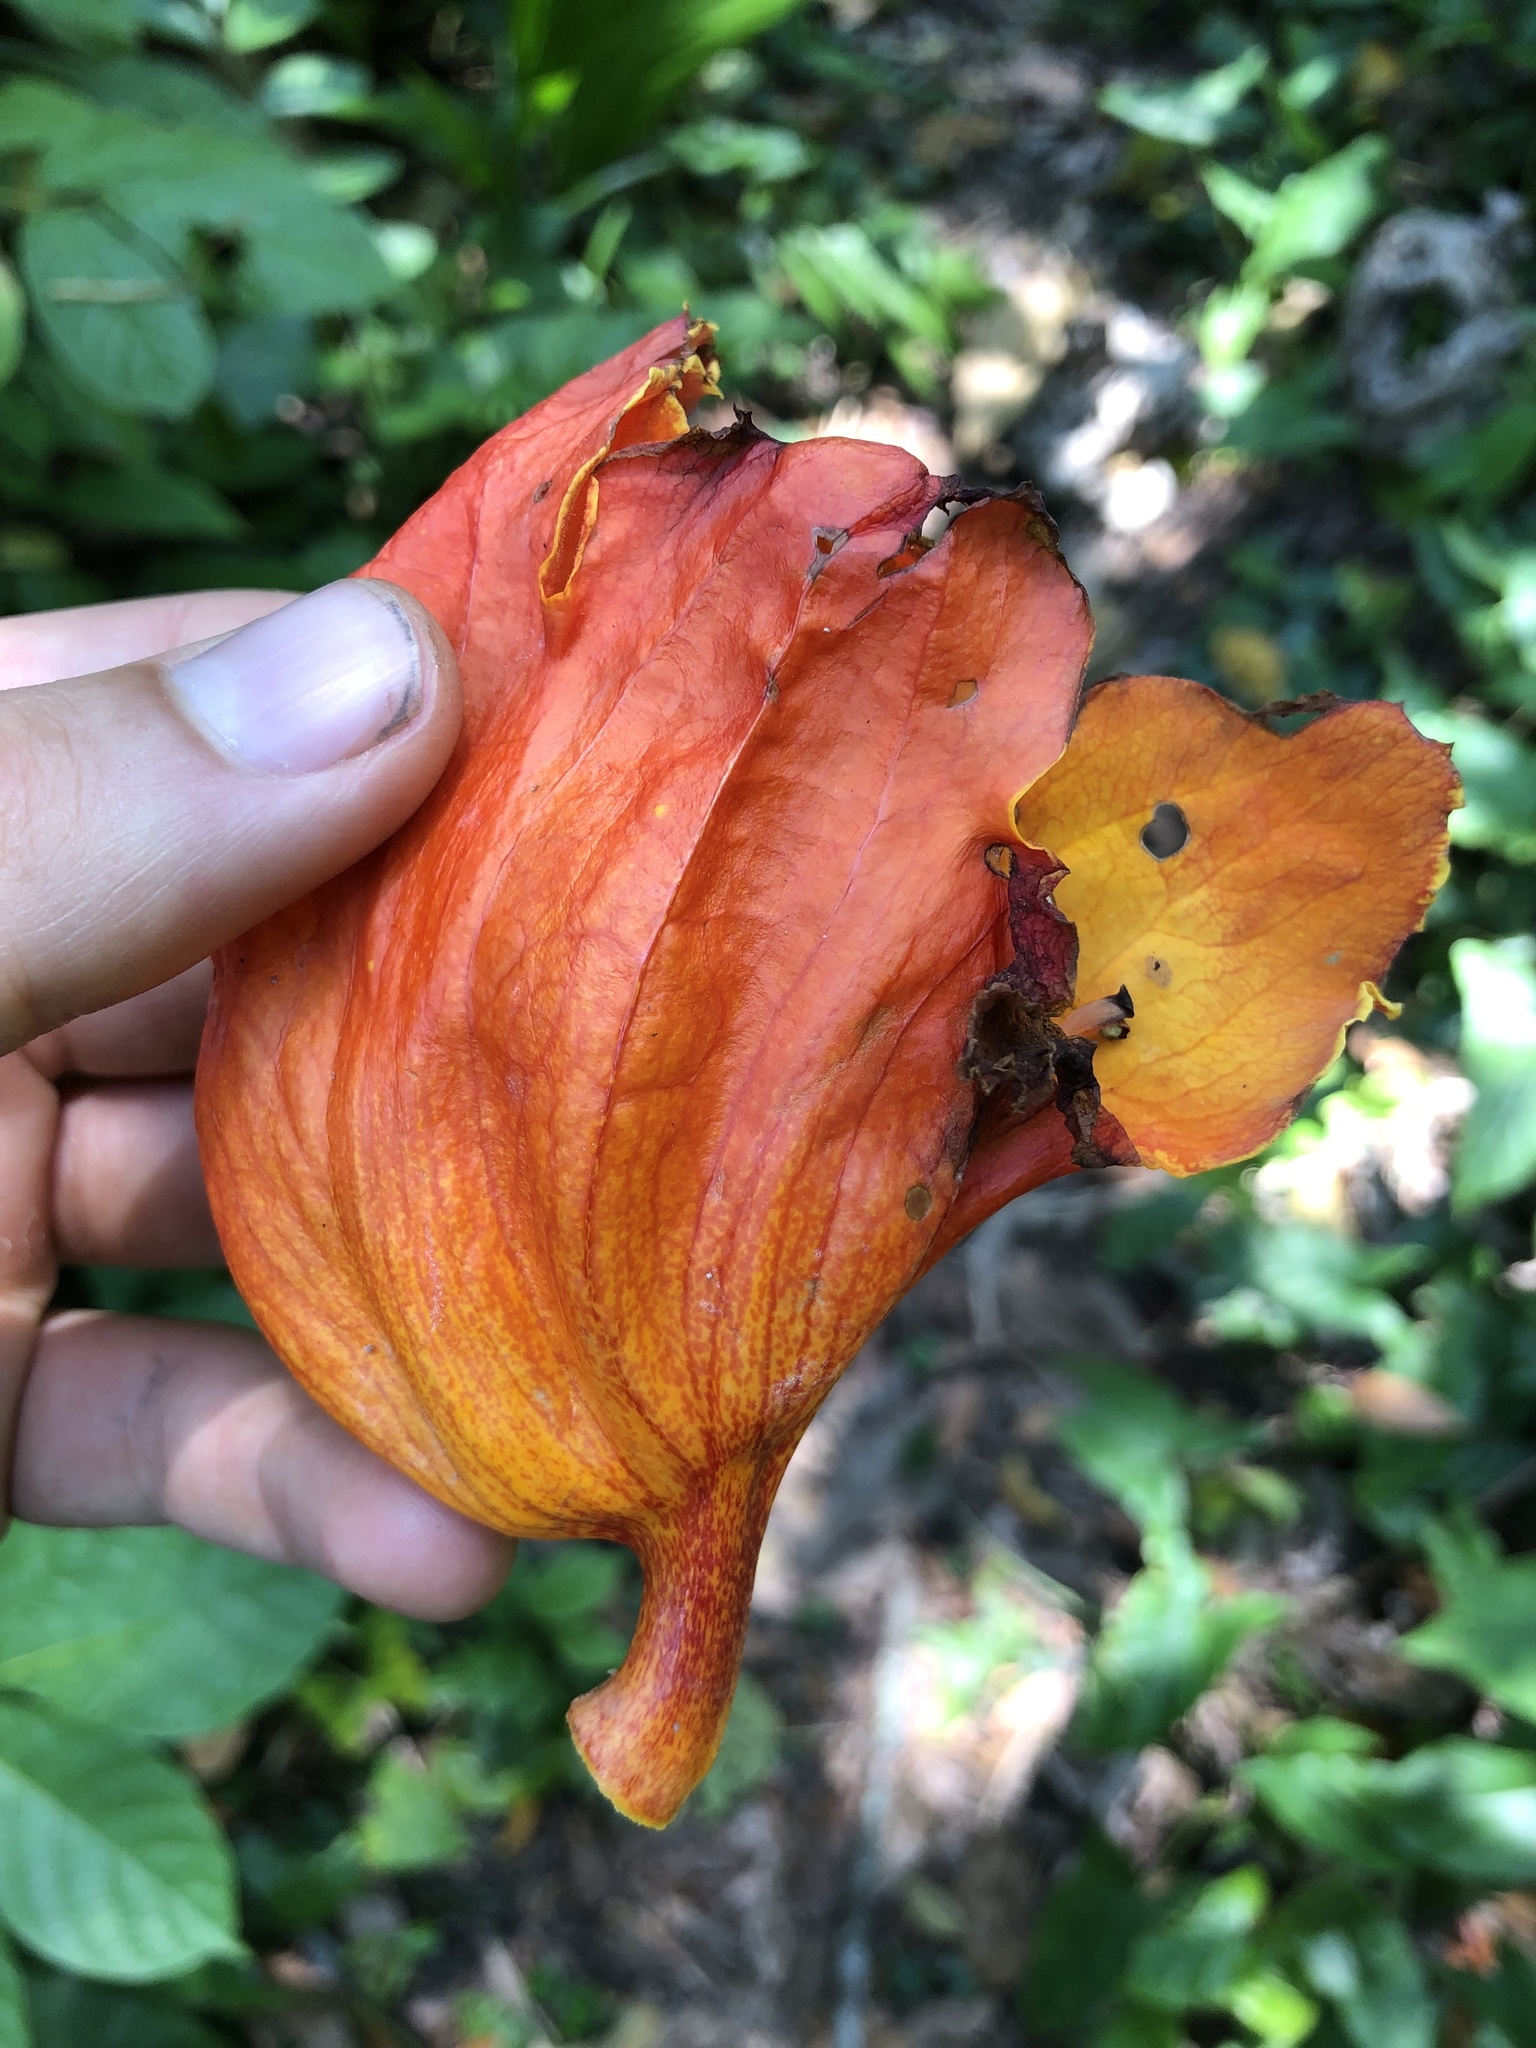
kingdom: Plantae
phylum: Tracheophyta
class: Magnoliopsida
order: Lamiales
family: Bignoniaceae
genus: Spathodea
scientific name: Spathodea campanulata
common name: African tuliptree
